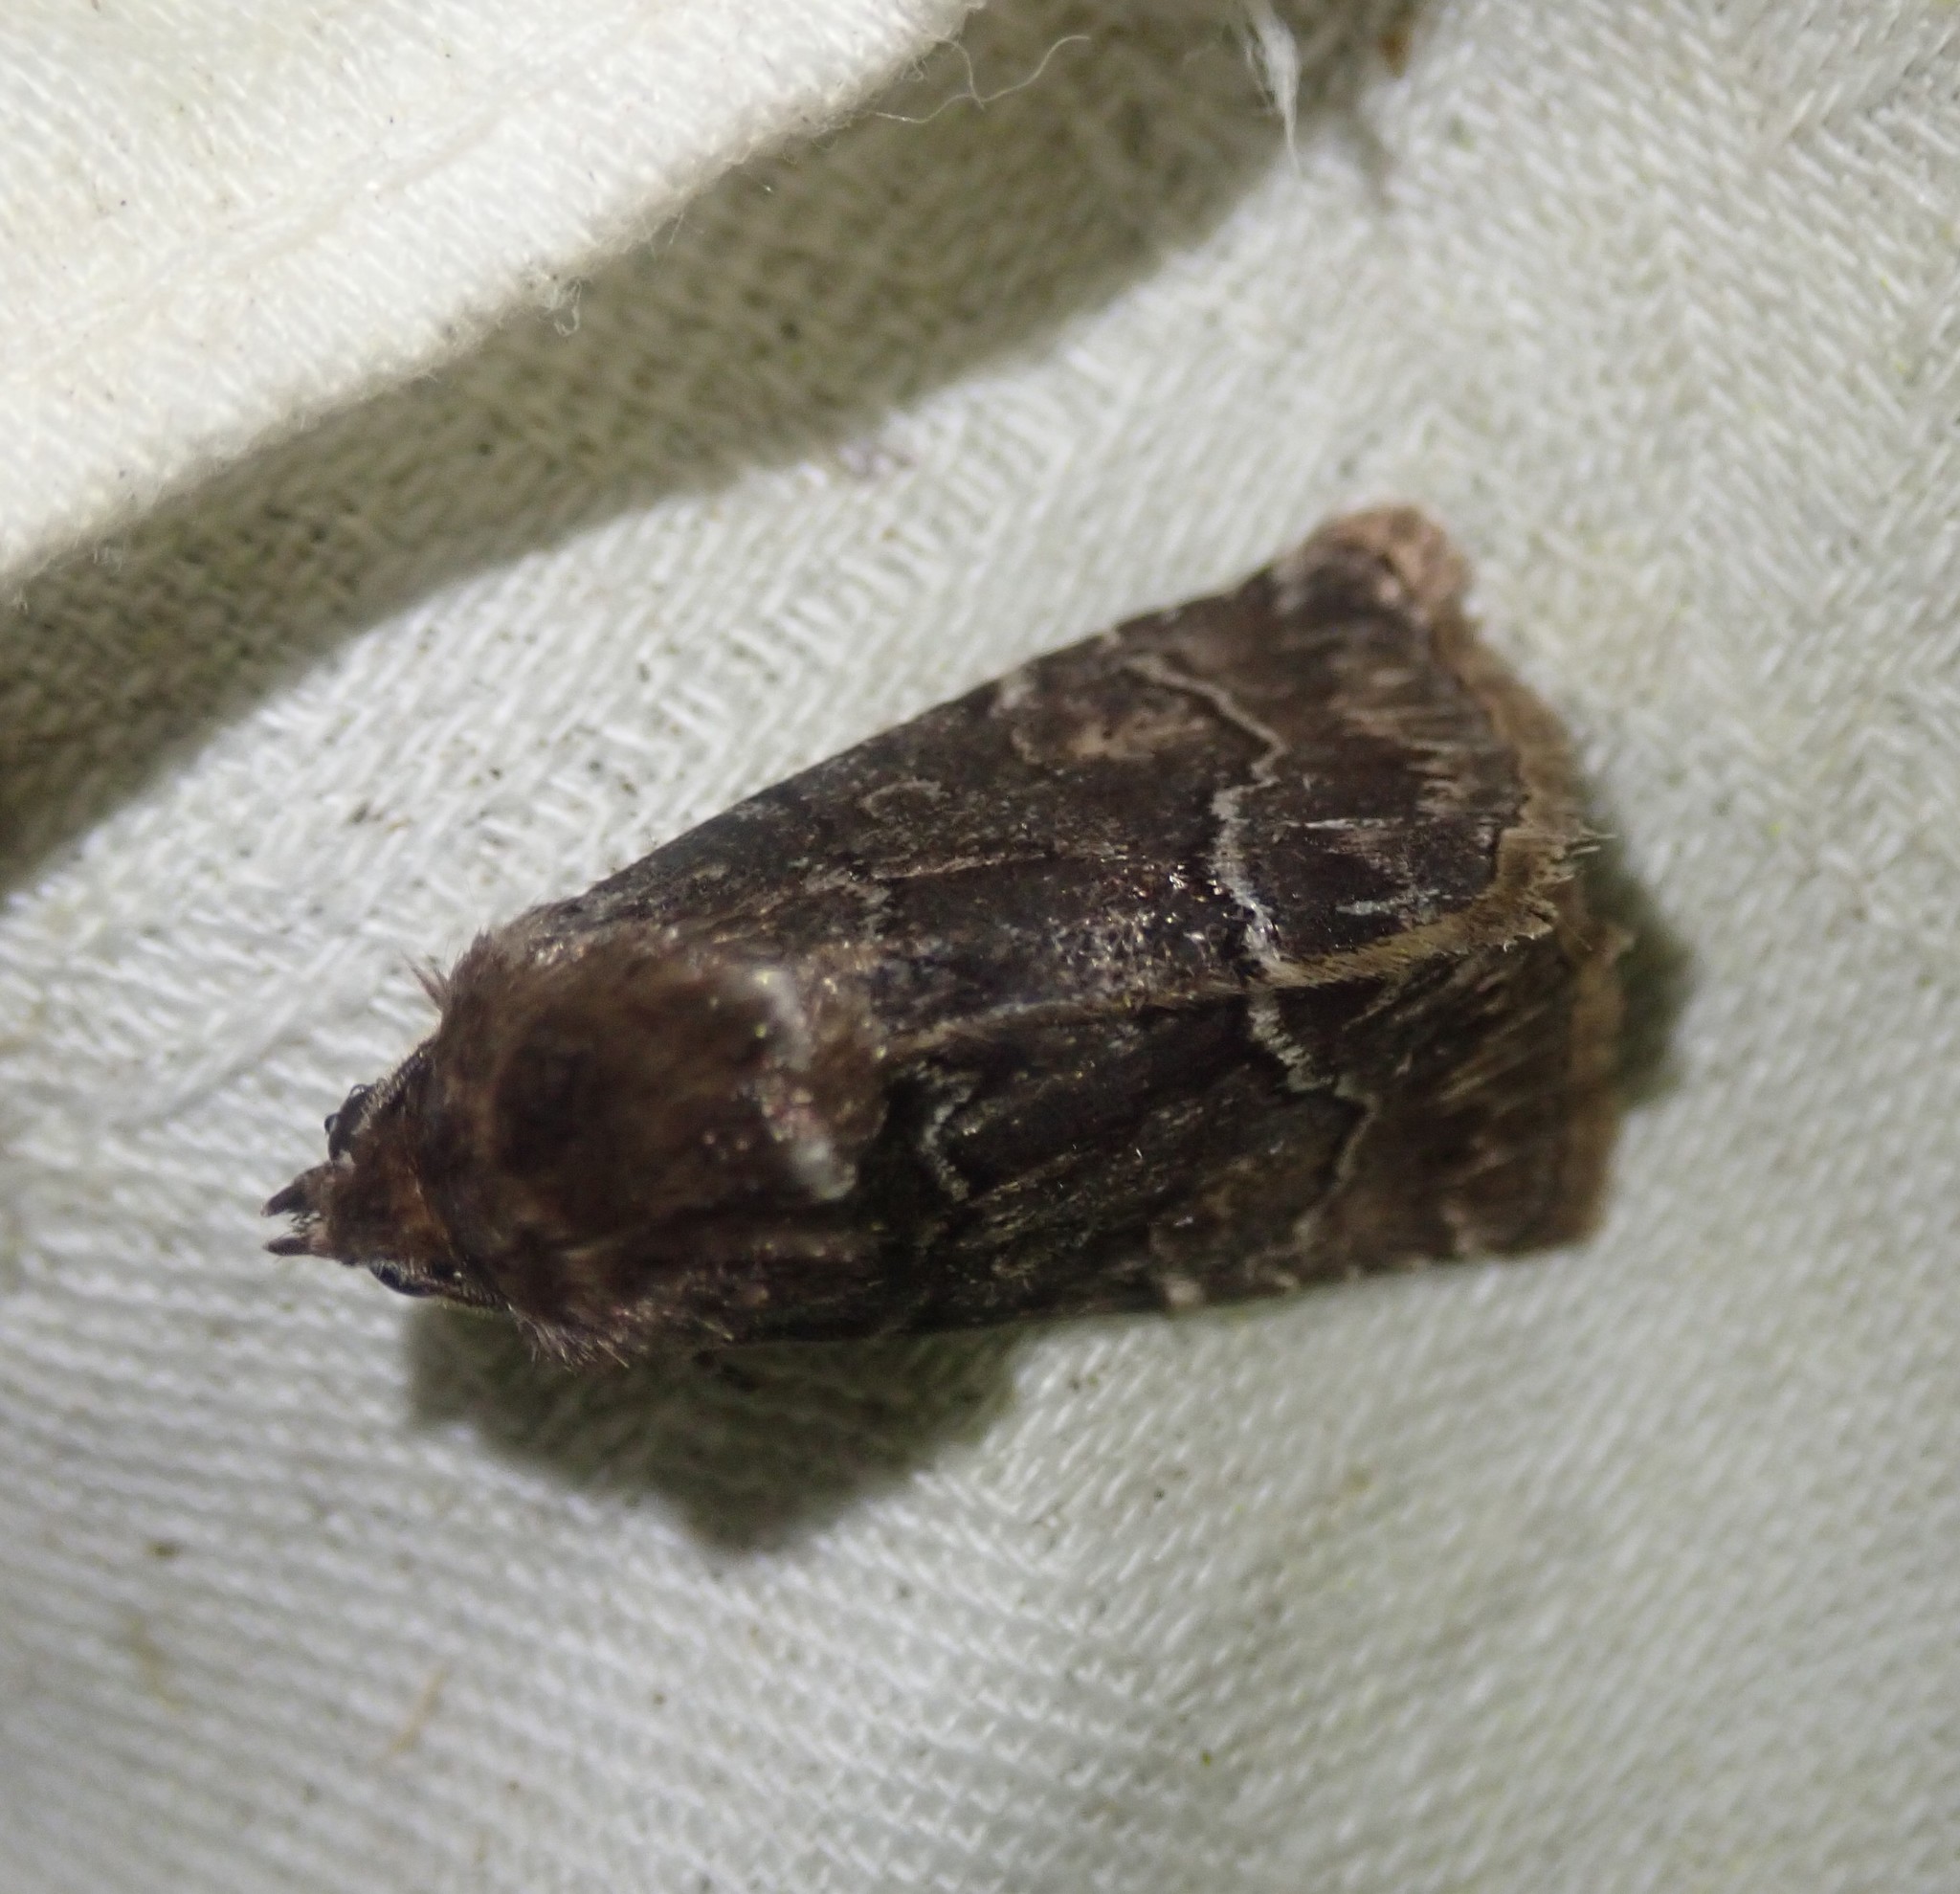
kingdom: Animalia
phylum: Arthropoda
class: Insecta
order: Lepidoptera
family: Noctuidae
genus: Thalpophila
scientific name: Thalpophila matura
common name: Straw underwing
